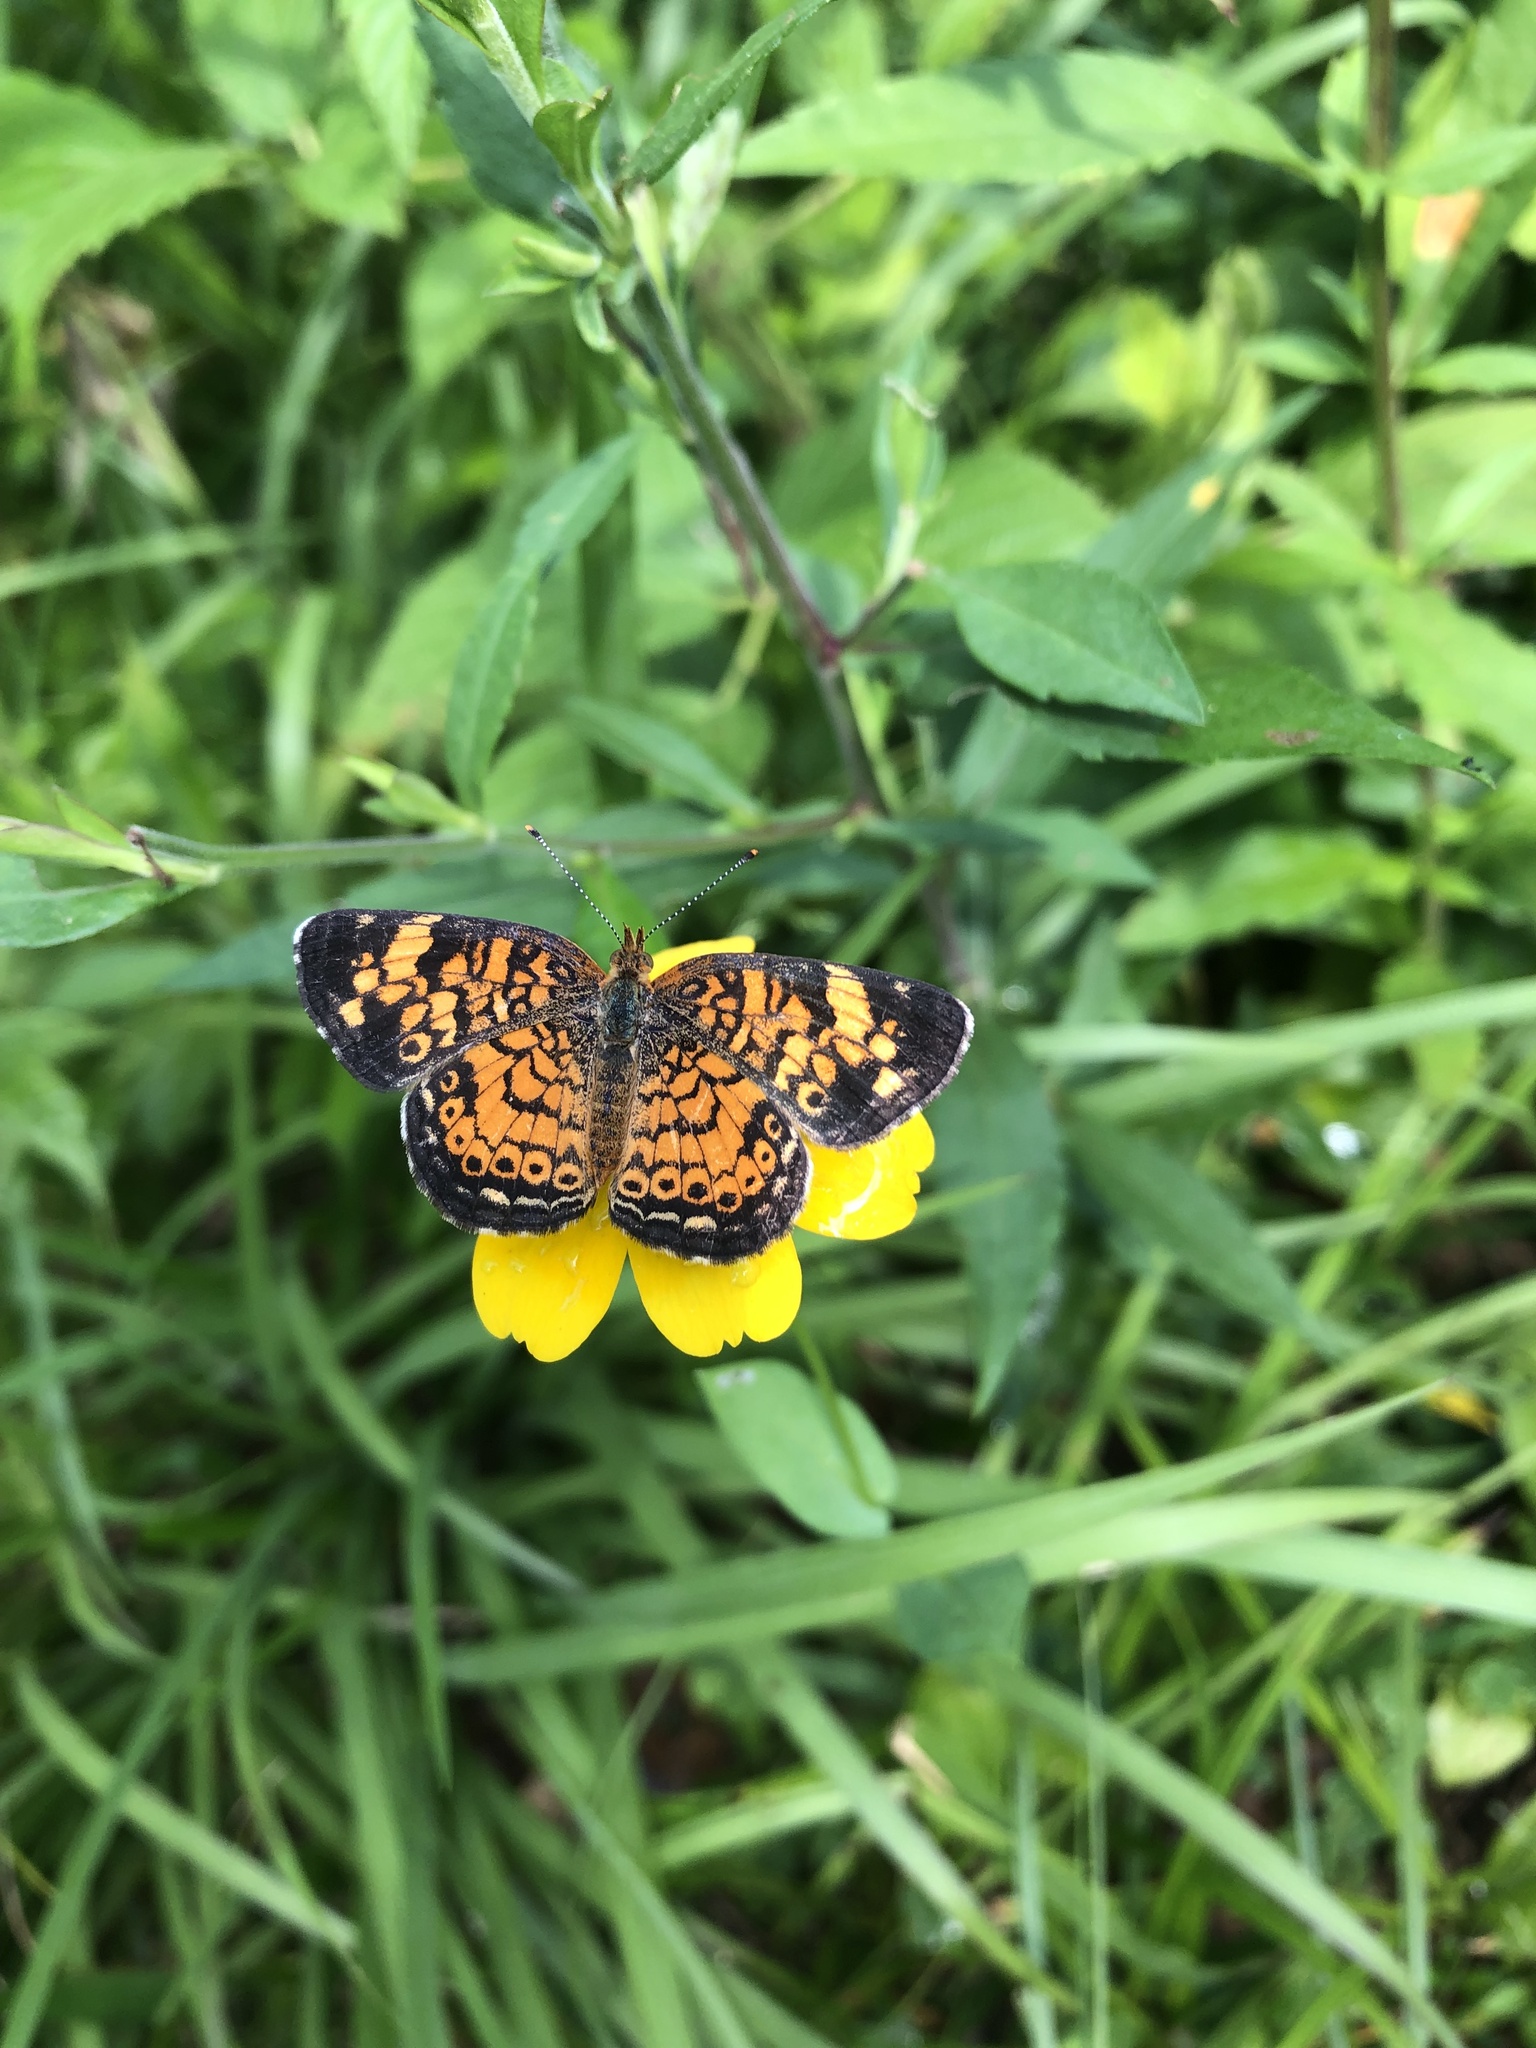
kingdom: Animalia
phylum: Arthropoda
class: Insecta
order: Lepidoptera
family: Nymphalidae
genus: Phyciodes
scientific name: Phyciodes tharos
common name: Pearl crescent
